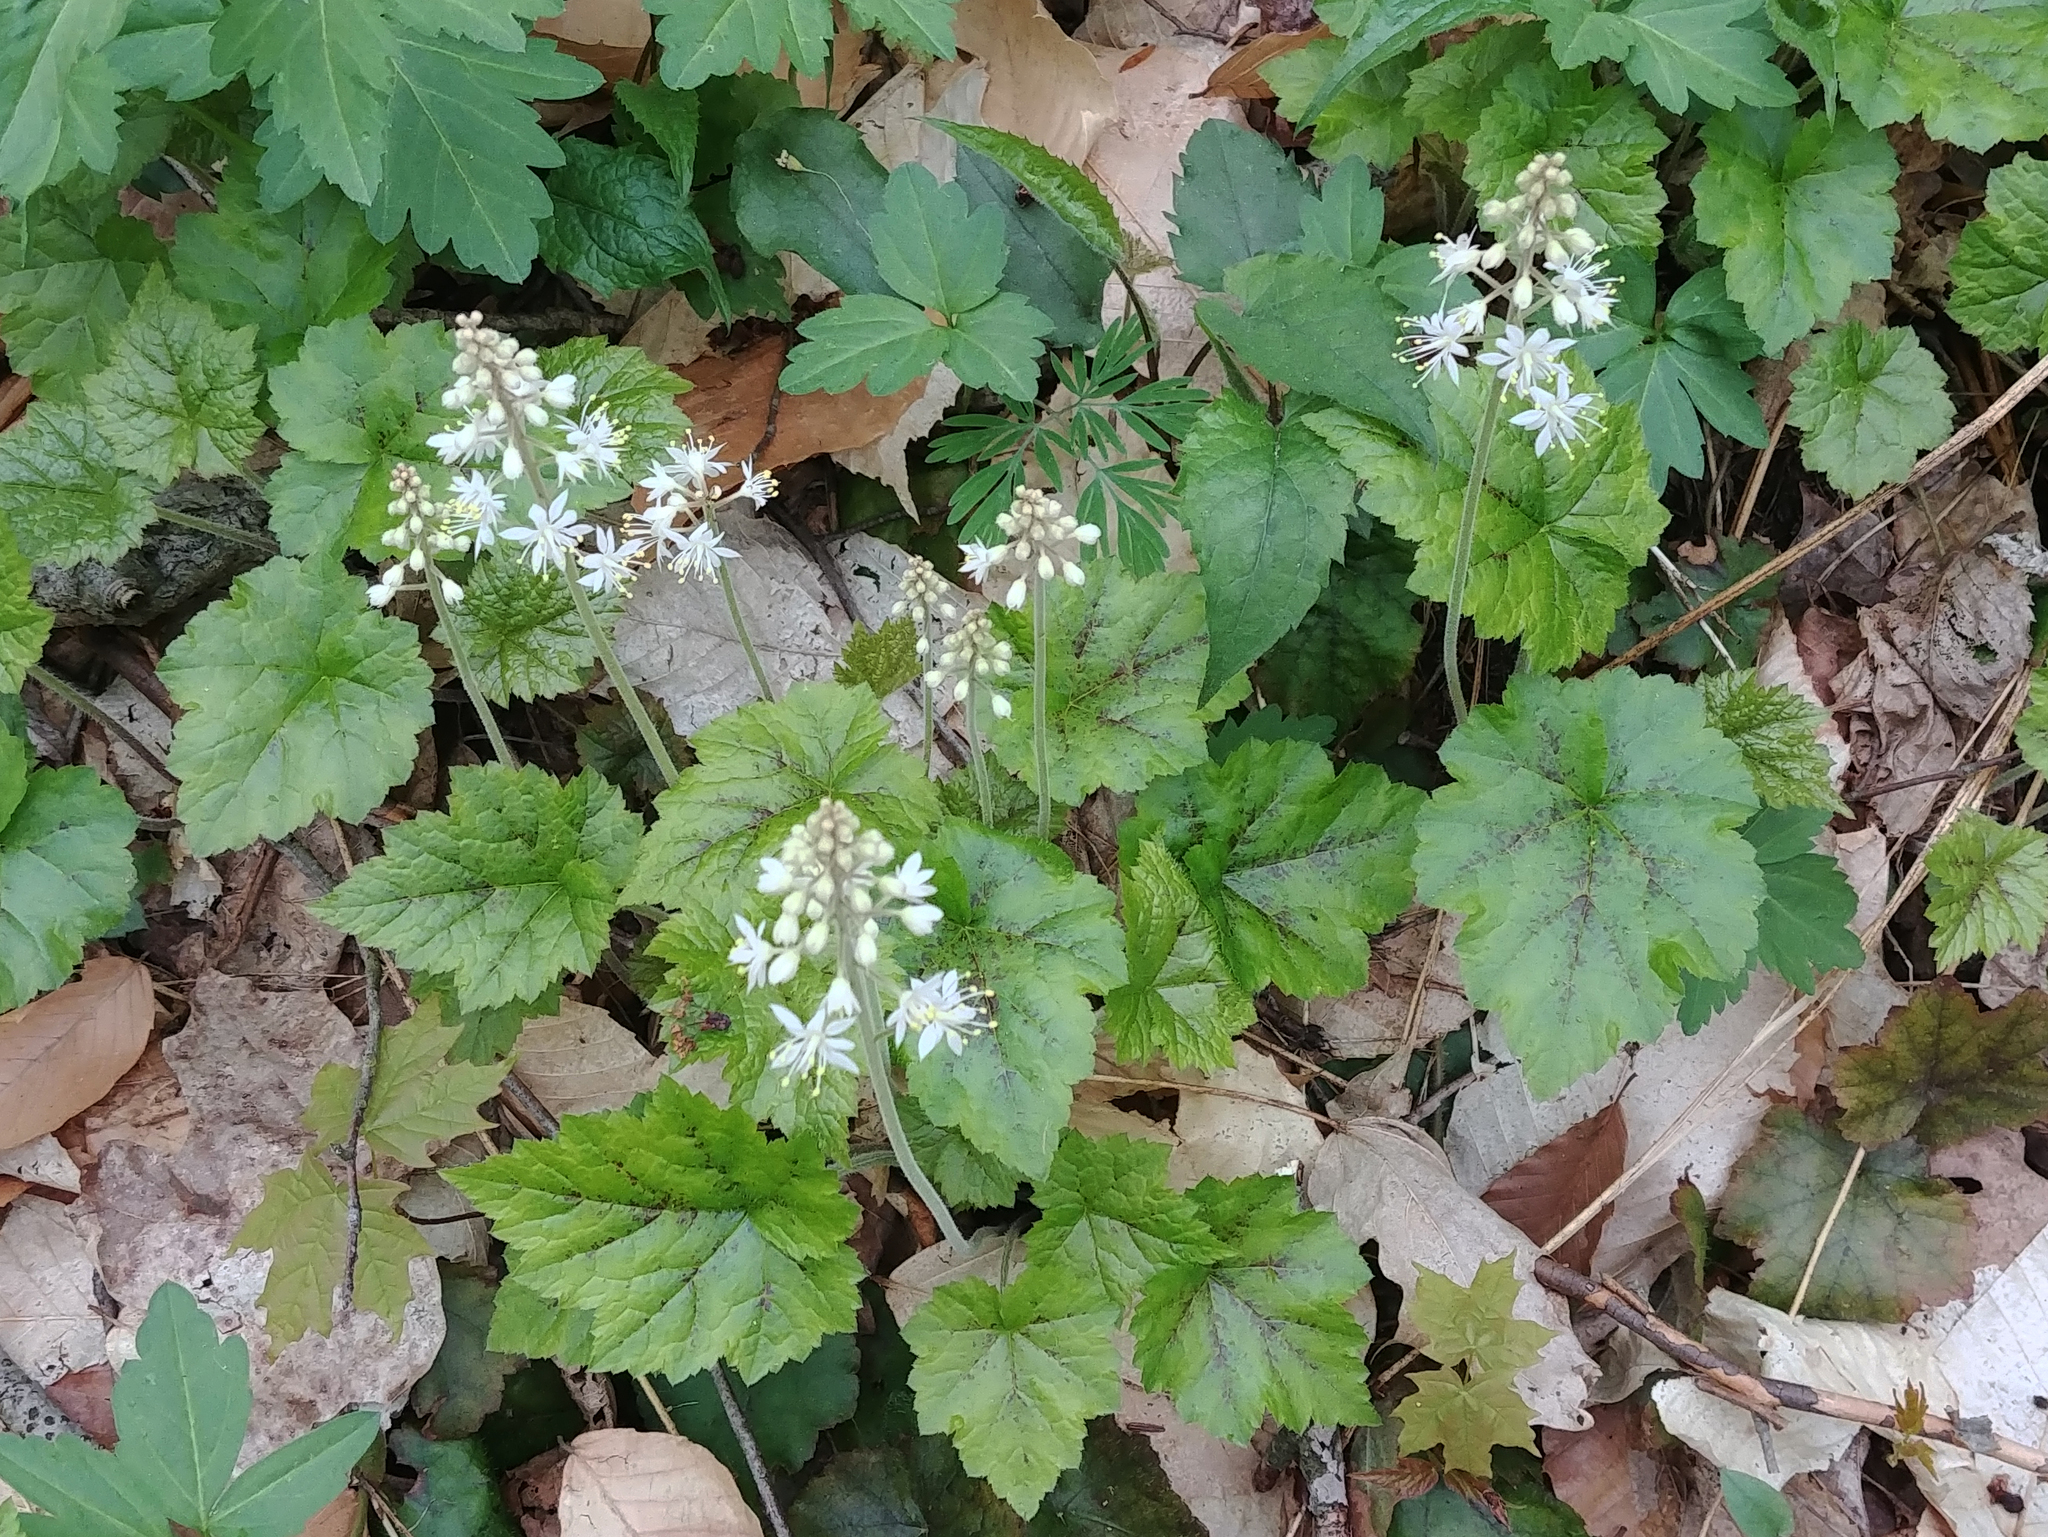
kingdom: Plantae
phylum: Tracheophyta
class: Magnoliopsida
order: Saxifragales
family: Saxifragaceae
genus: Tiarella
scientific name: Tiarella stolonifera
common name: Stoloniferous foamflower
